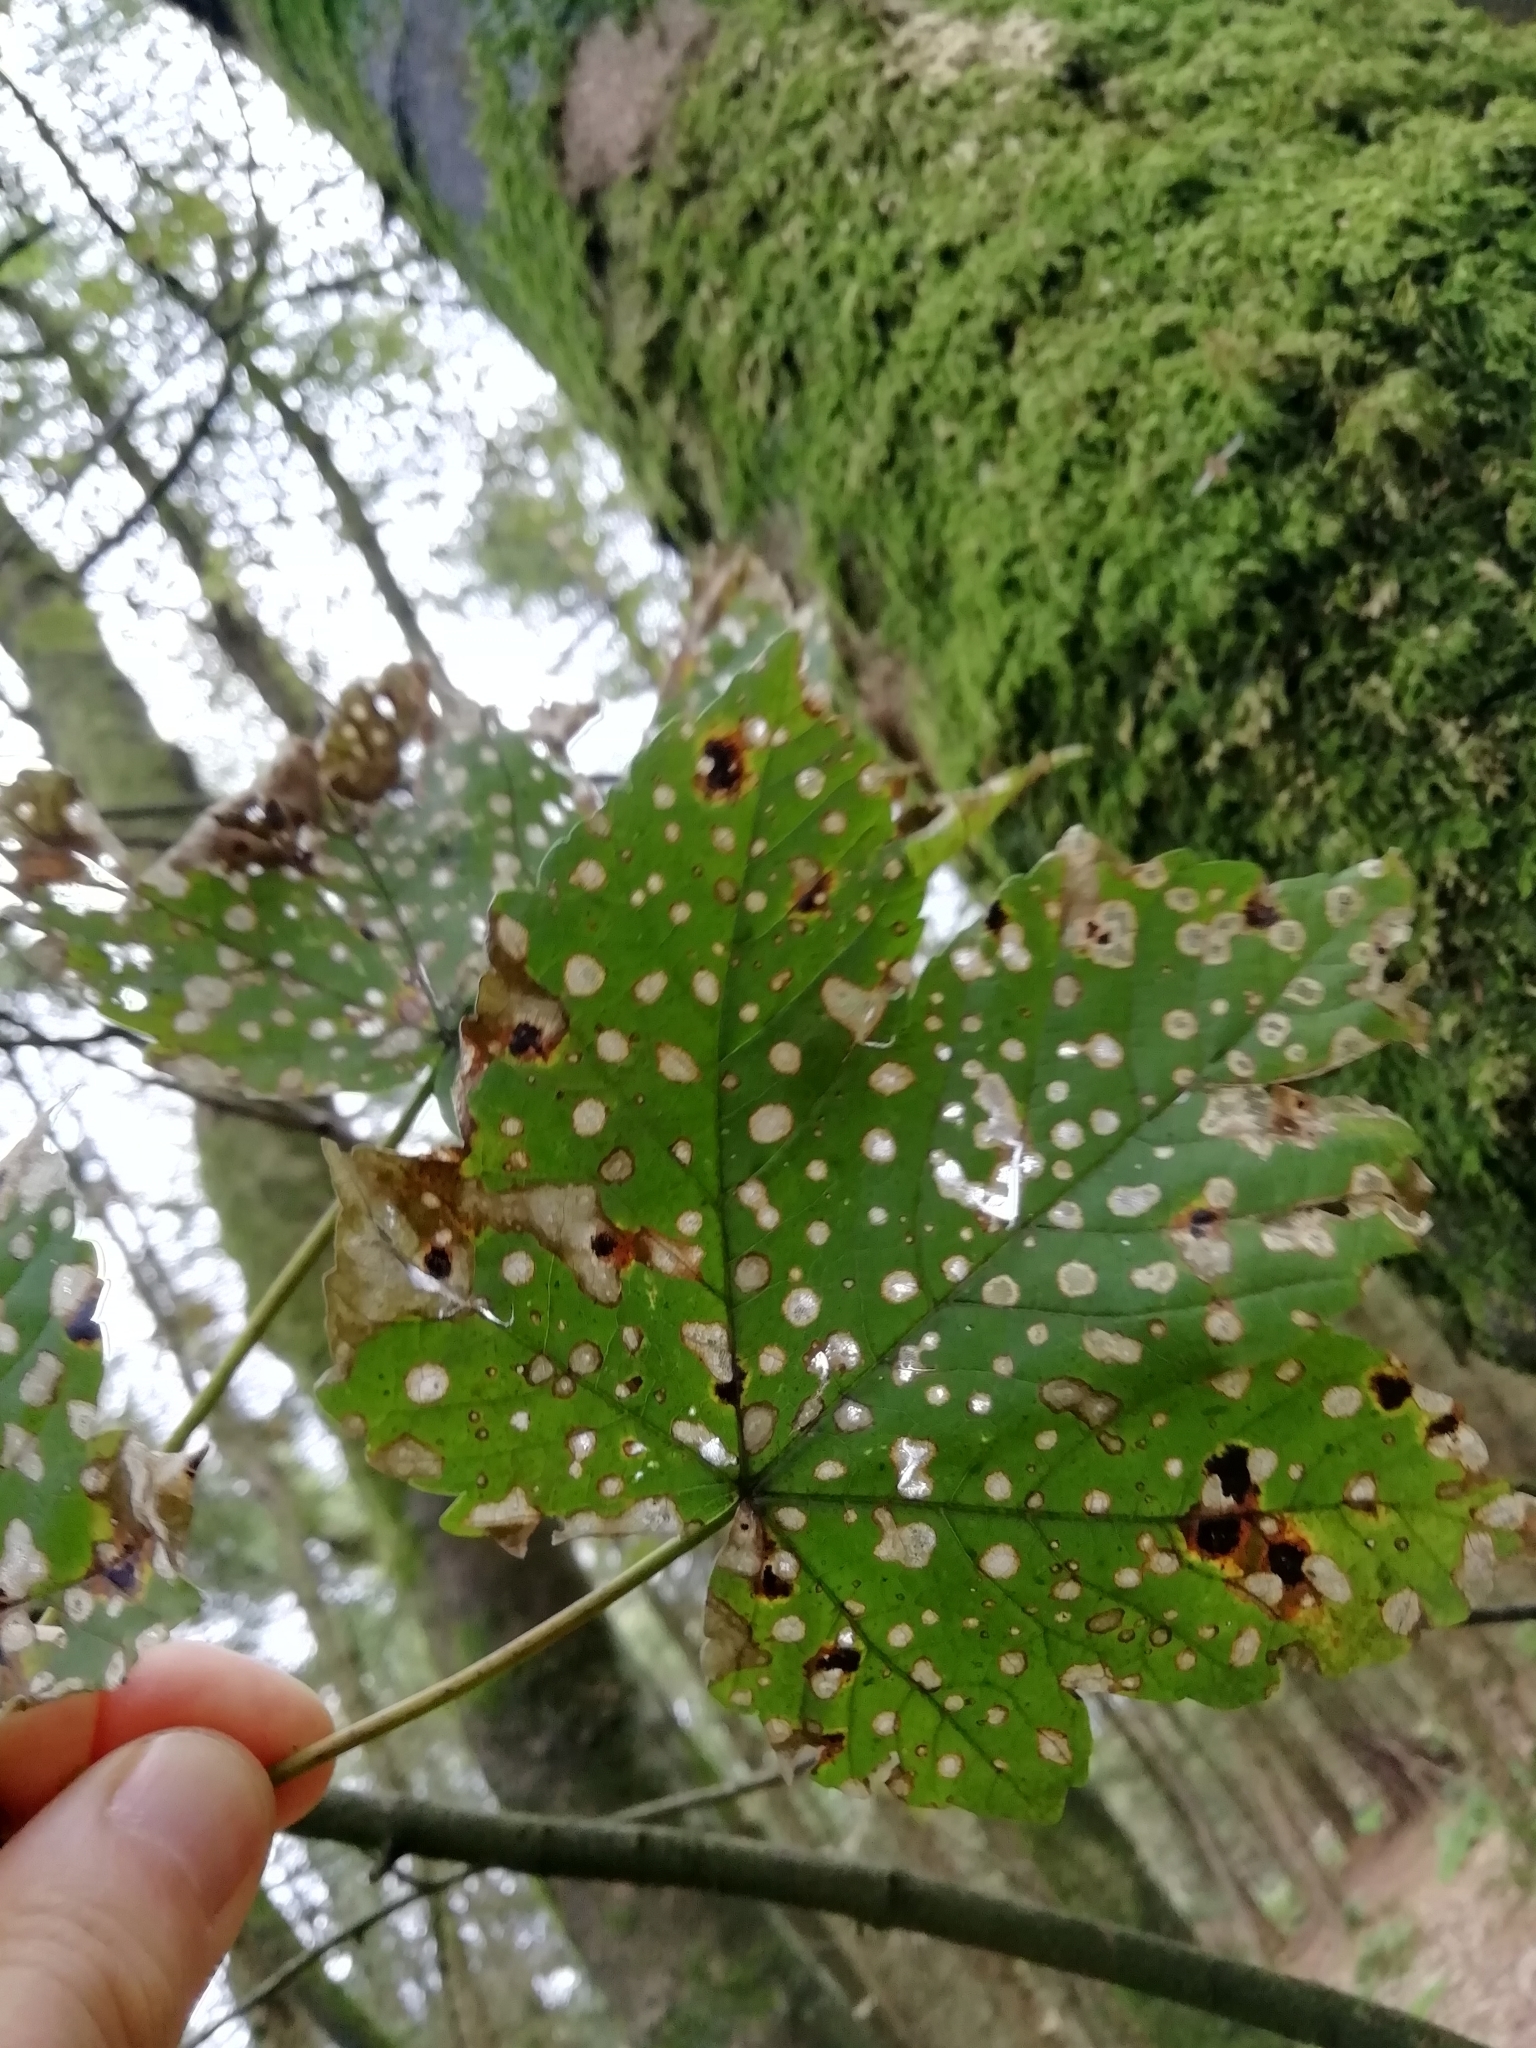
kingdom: Fungi
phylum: Ascomycota
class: Leotiomycetes
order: Rhytismatales
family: Rhytismataceae
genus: Rhytisma
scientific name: Rhytisma acerinum
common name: European tar spot
